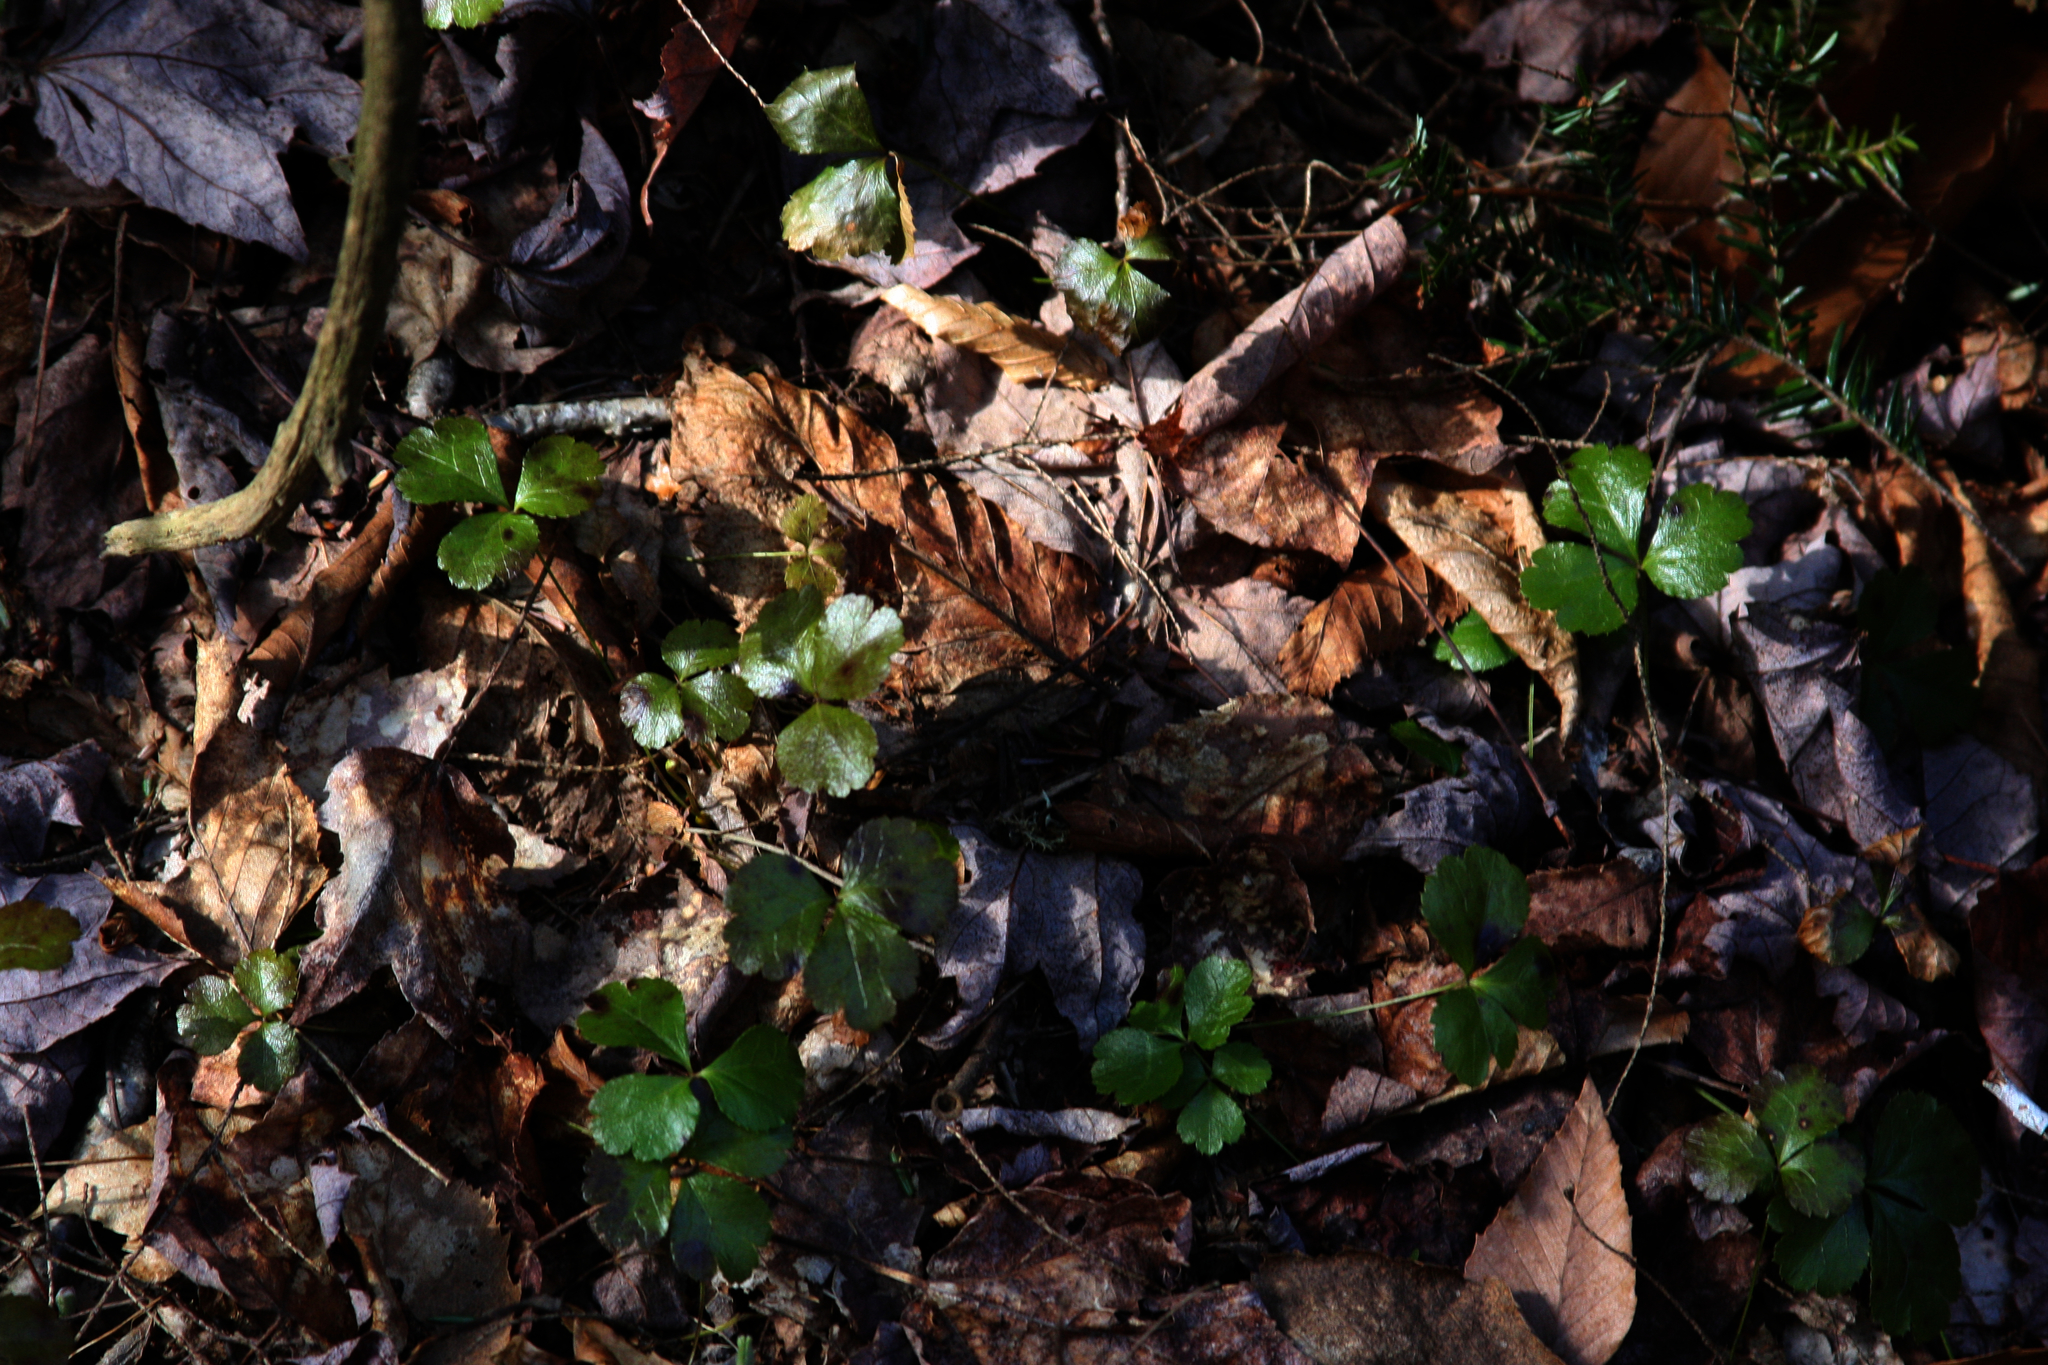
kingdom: Plantae
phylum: Tracheophyta
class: Magnoliopsida
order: Ranunculales
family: Ranunculaceae
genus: Coptis
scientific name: Coptis trifolia
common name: Canker-root
